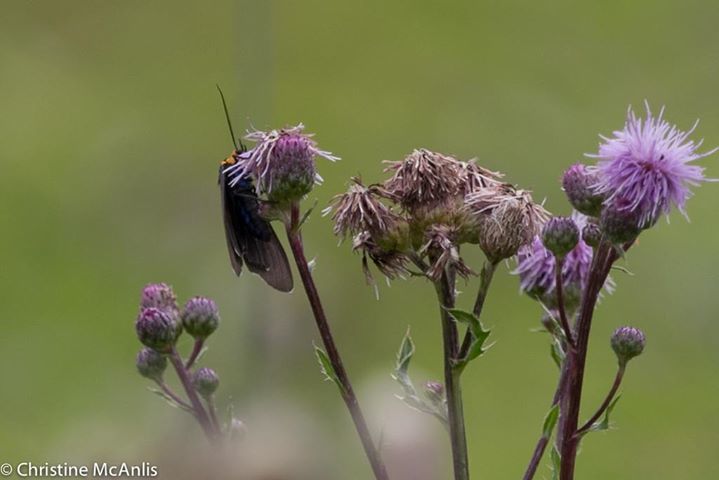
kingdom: Animalia
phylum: Arthropoda
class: Insecta
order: Lepidoptera
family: Erebidae
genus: Ctenucha
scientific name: Ctenucha virginica
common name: Virginia ctenucha moth
